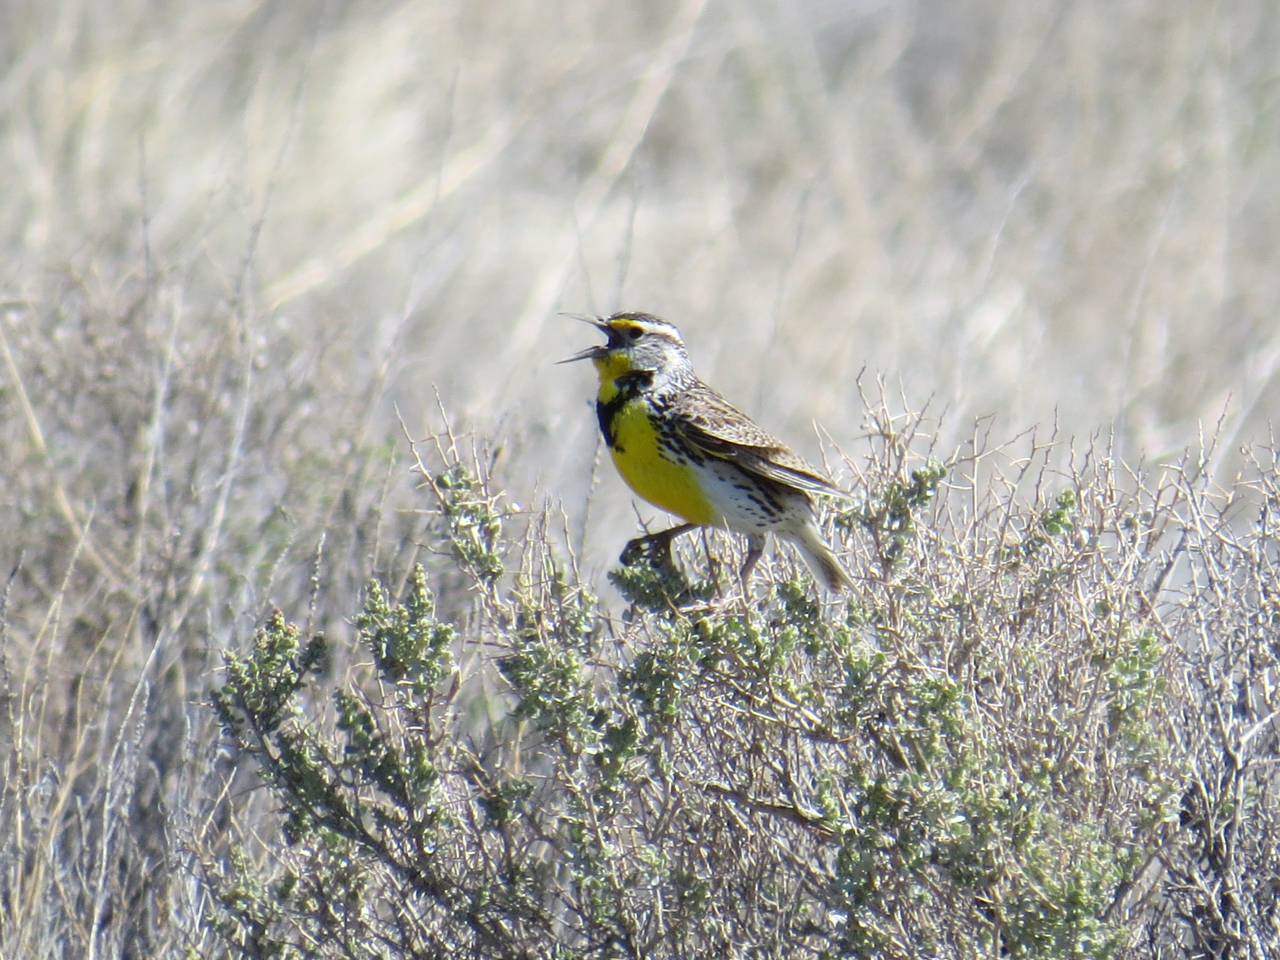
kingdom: Animalia
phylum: Chordata
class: Aves
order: Passeriformes
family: Icteridae
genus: Sturnella
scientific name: Sturnella neglecta
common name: Western meadowlark
